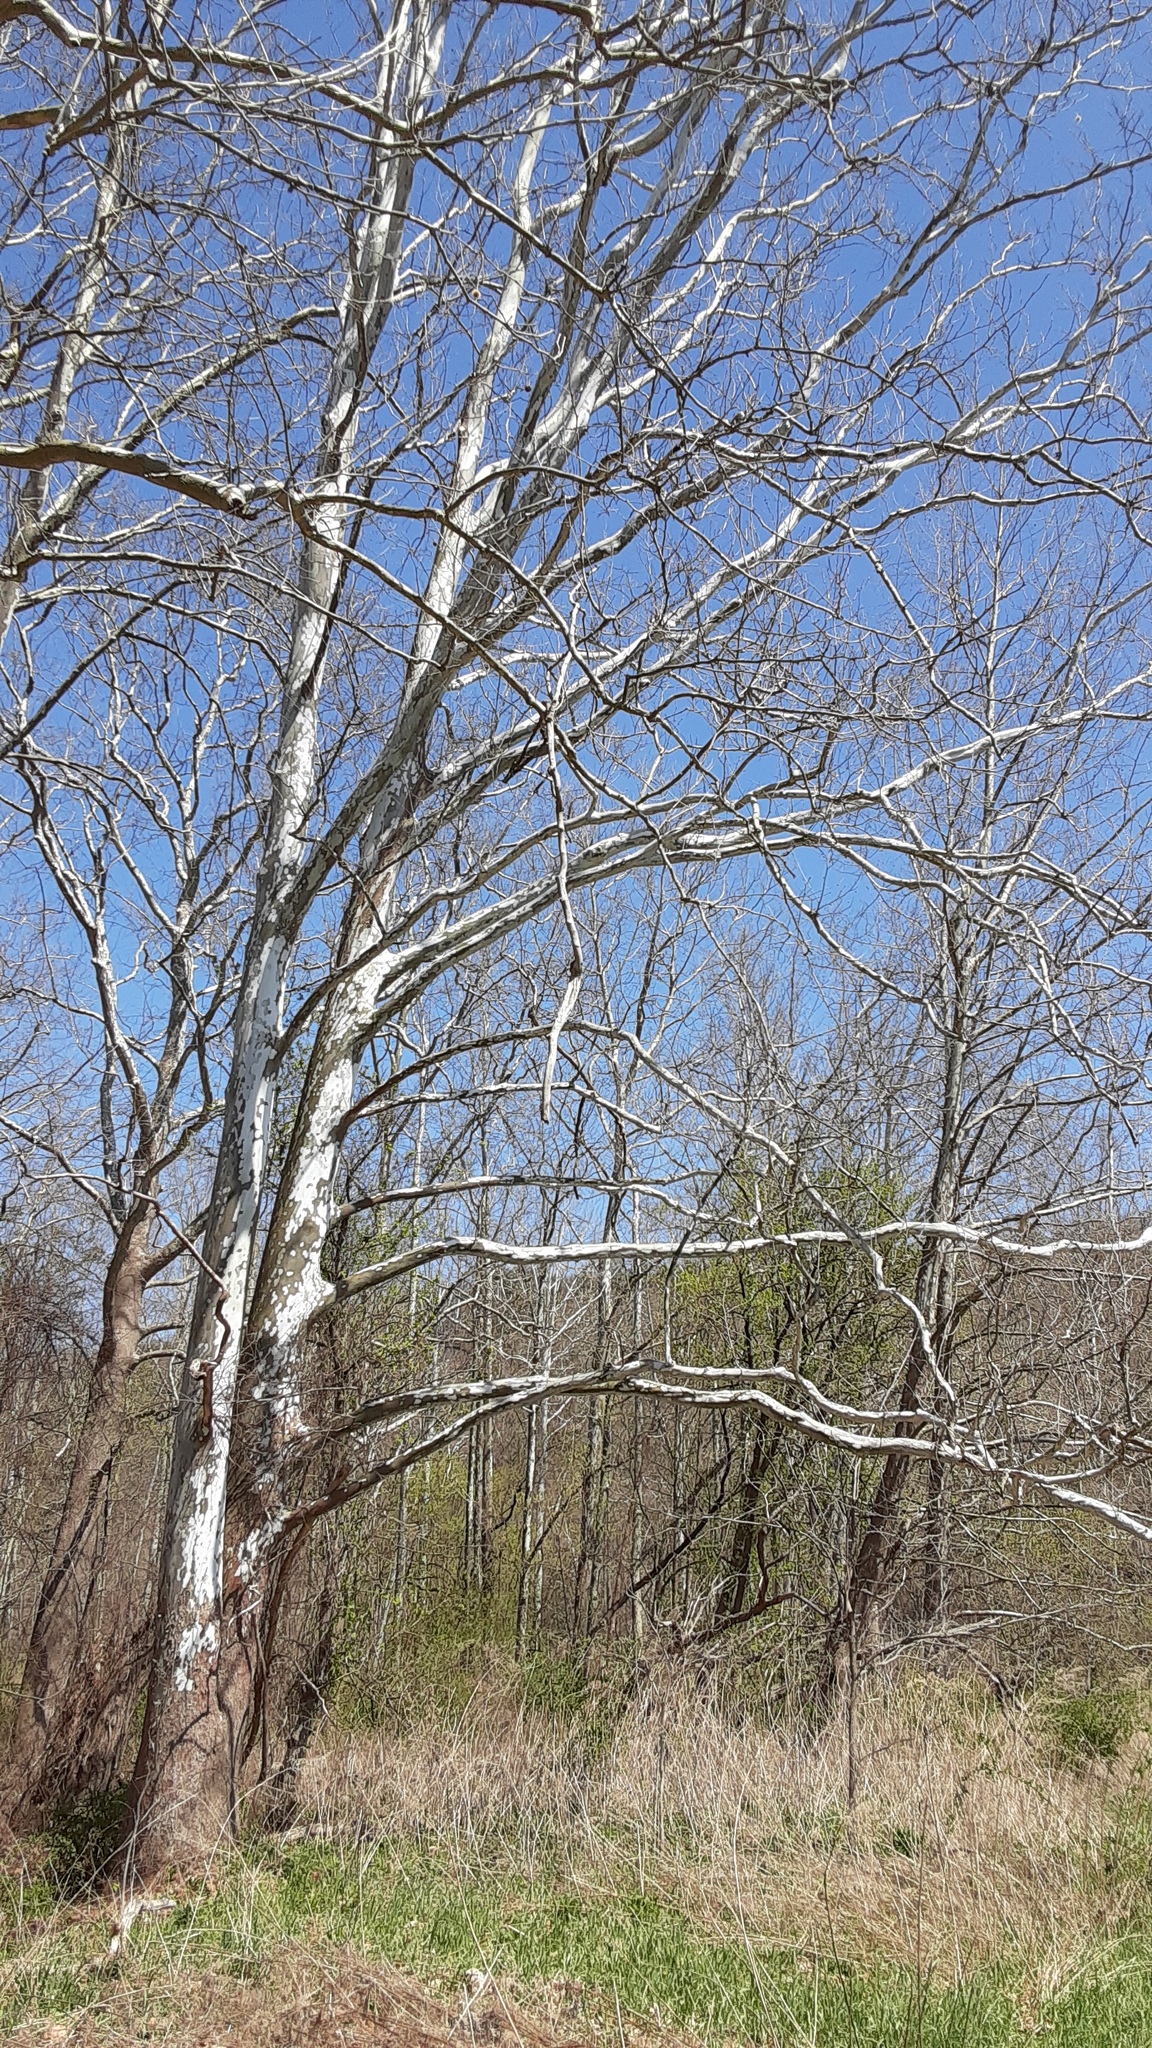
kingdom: Plantae
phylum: Tracheophyta
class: Magnoliopsida
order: Proteales
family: Platanaceae
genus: Platanus
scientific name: Platanus occidentalis
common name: American sycamore
